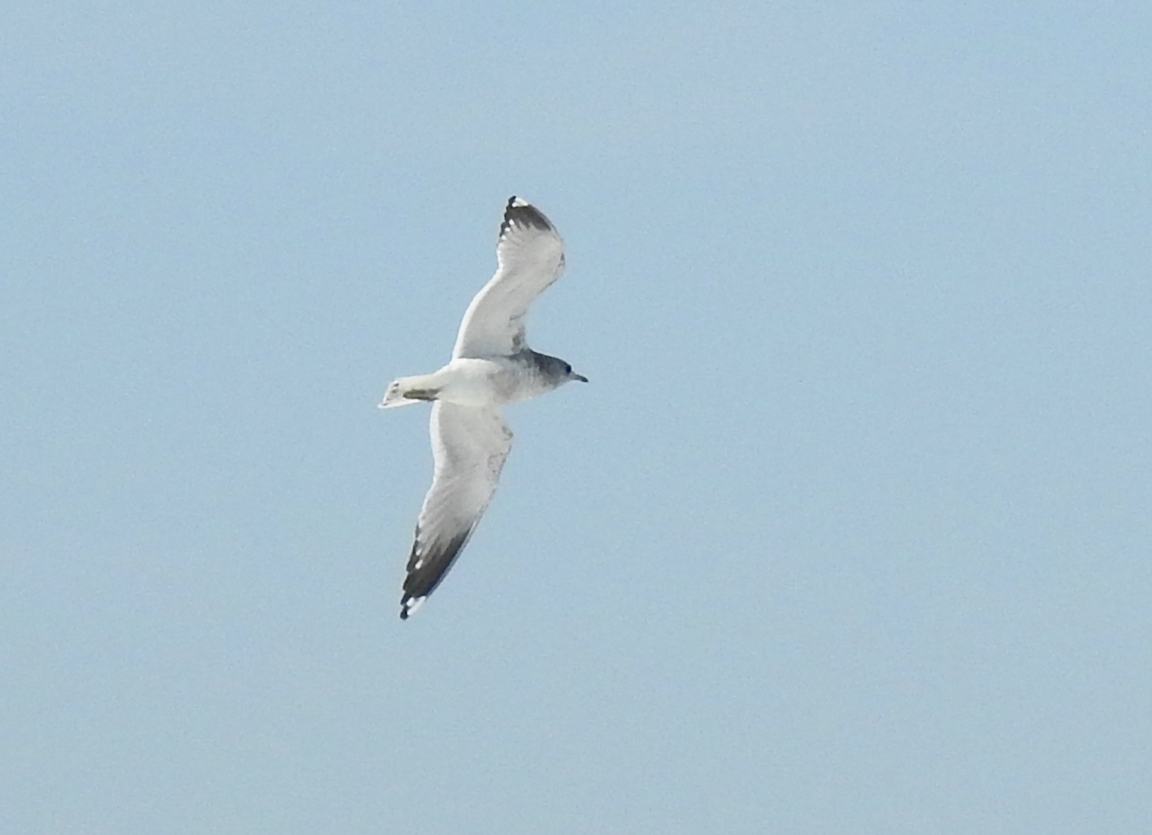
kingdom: Animalia
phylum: Chordata
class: Aves
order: Charadriiformes
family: Laridae
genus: Larus
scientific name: Larus brachyrhynchus
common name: Short-billed gull
